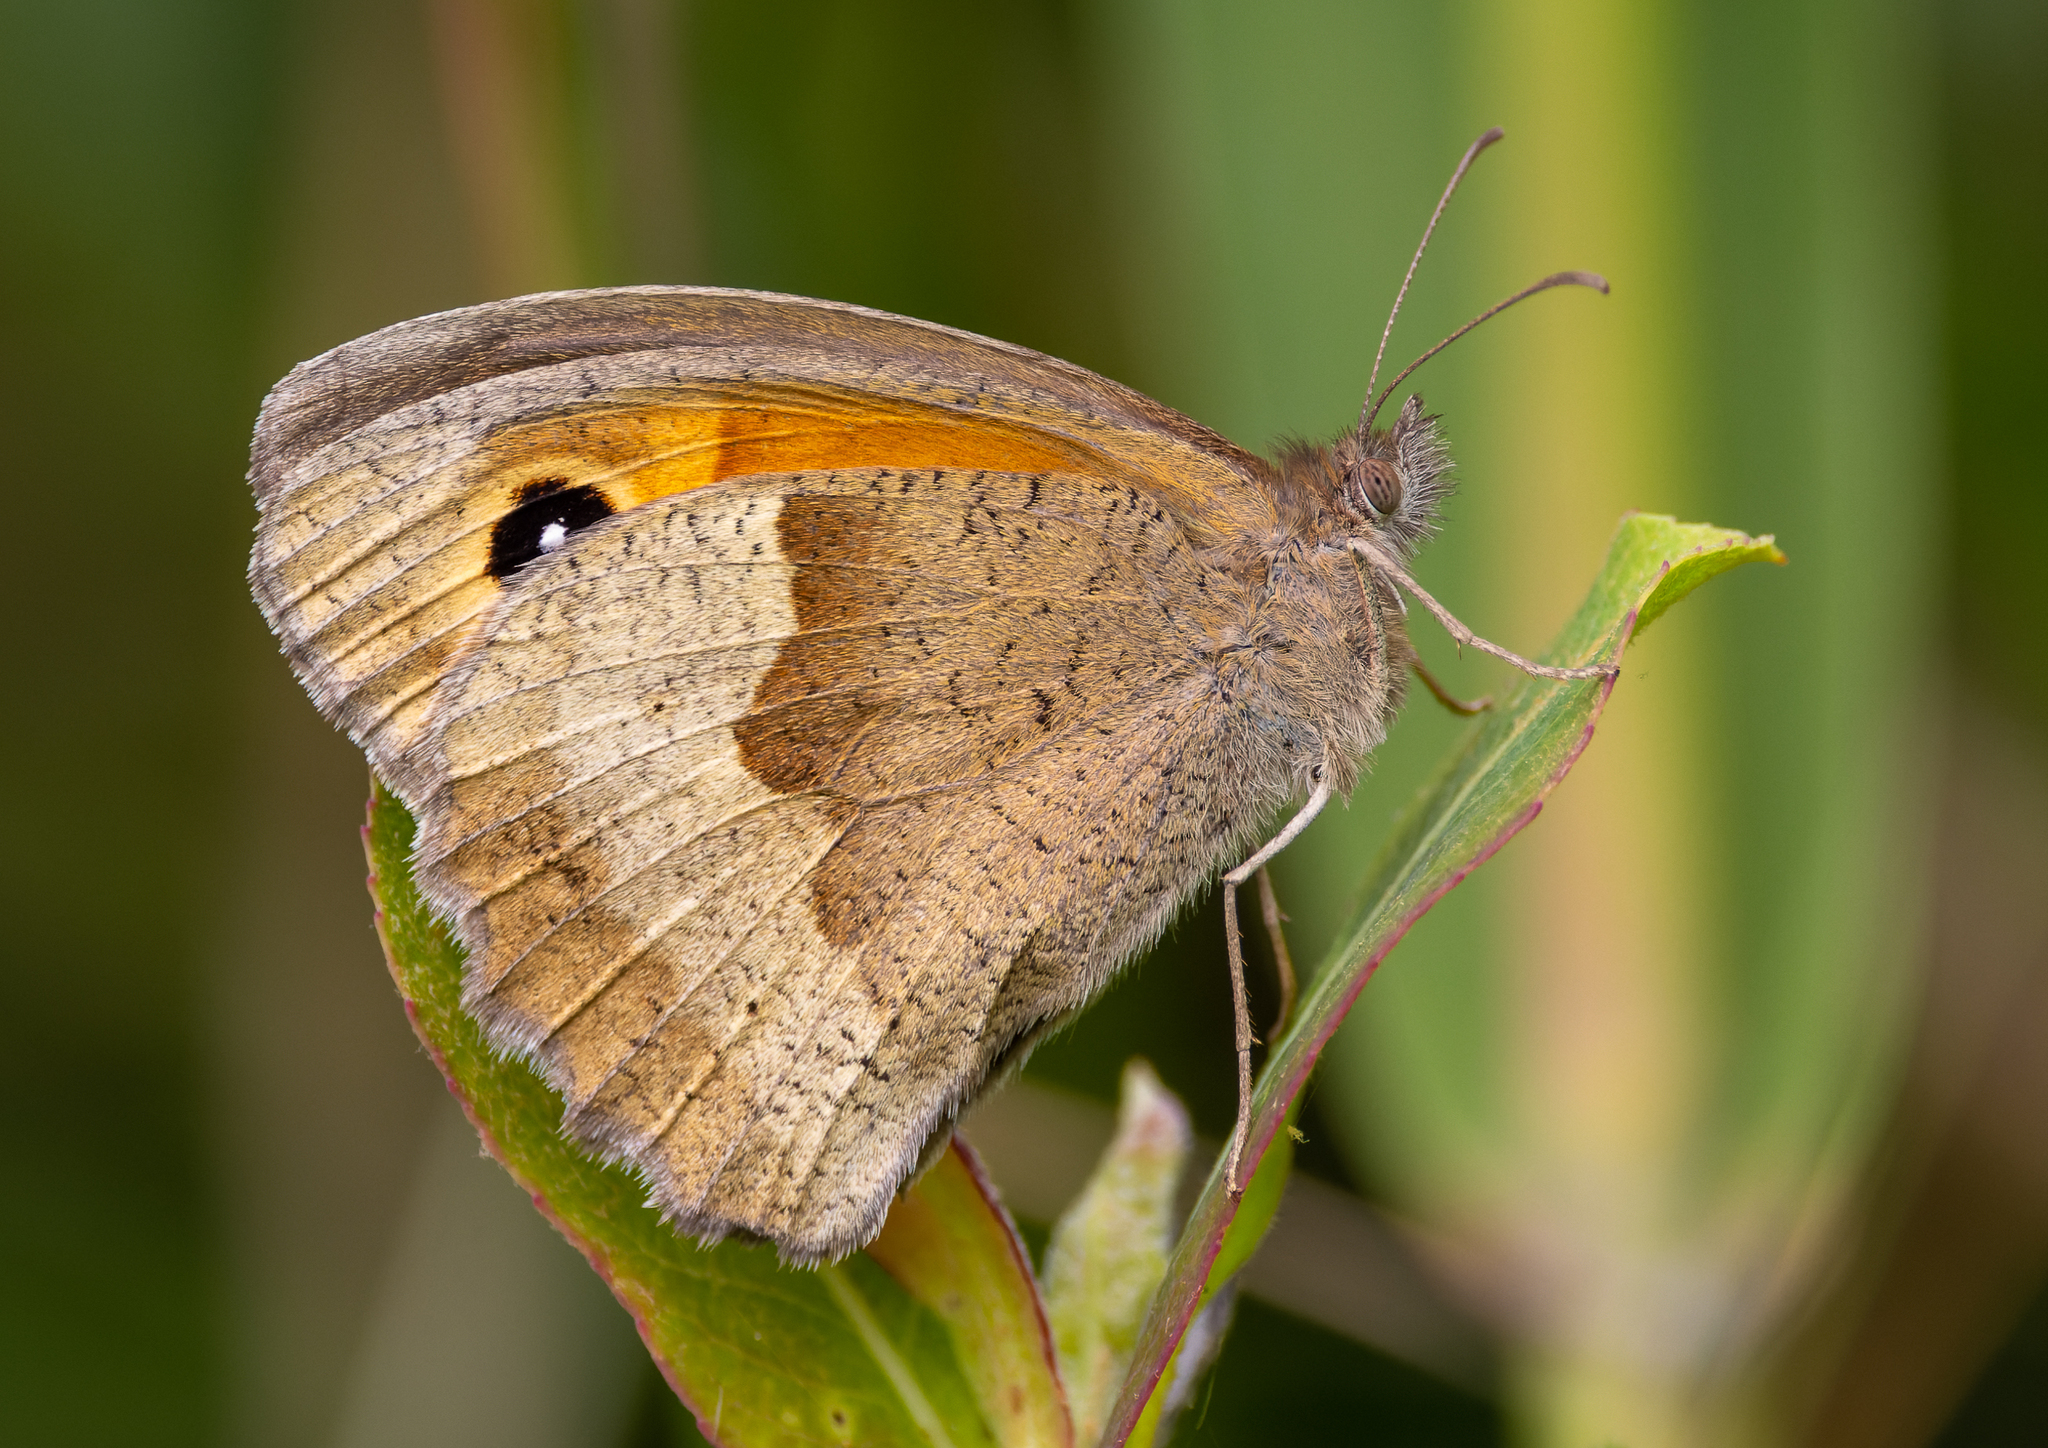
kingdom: Animalia
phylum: Arthropoda
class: Insecta
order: Lepidoptera
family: Nymphalidae
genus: Maniola
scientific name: Maniola jurtina
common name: Meadow brown
